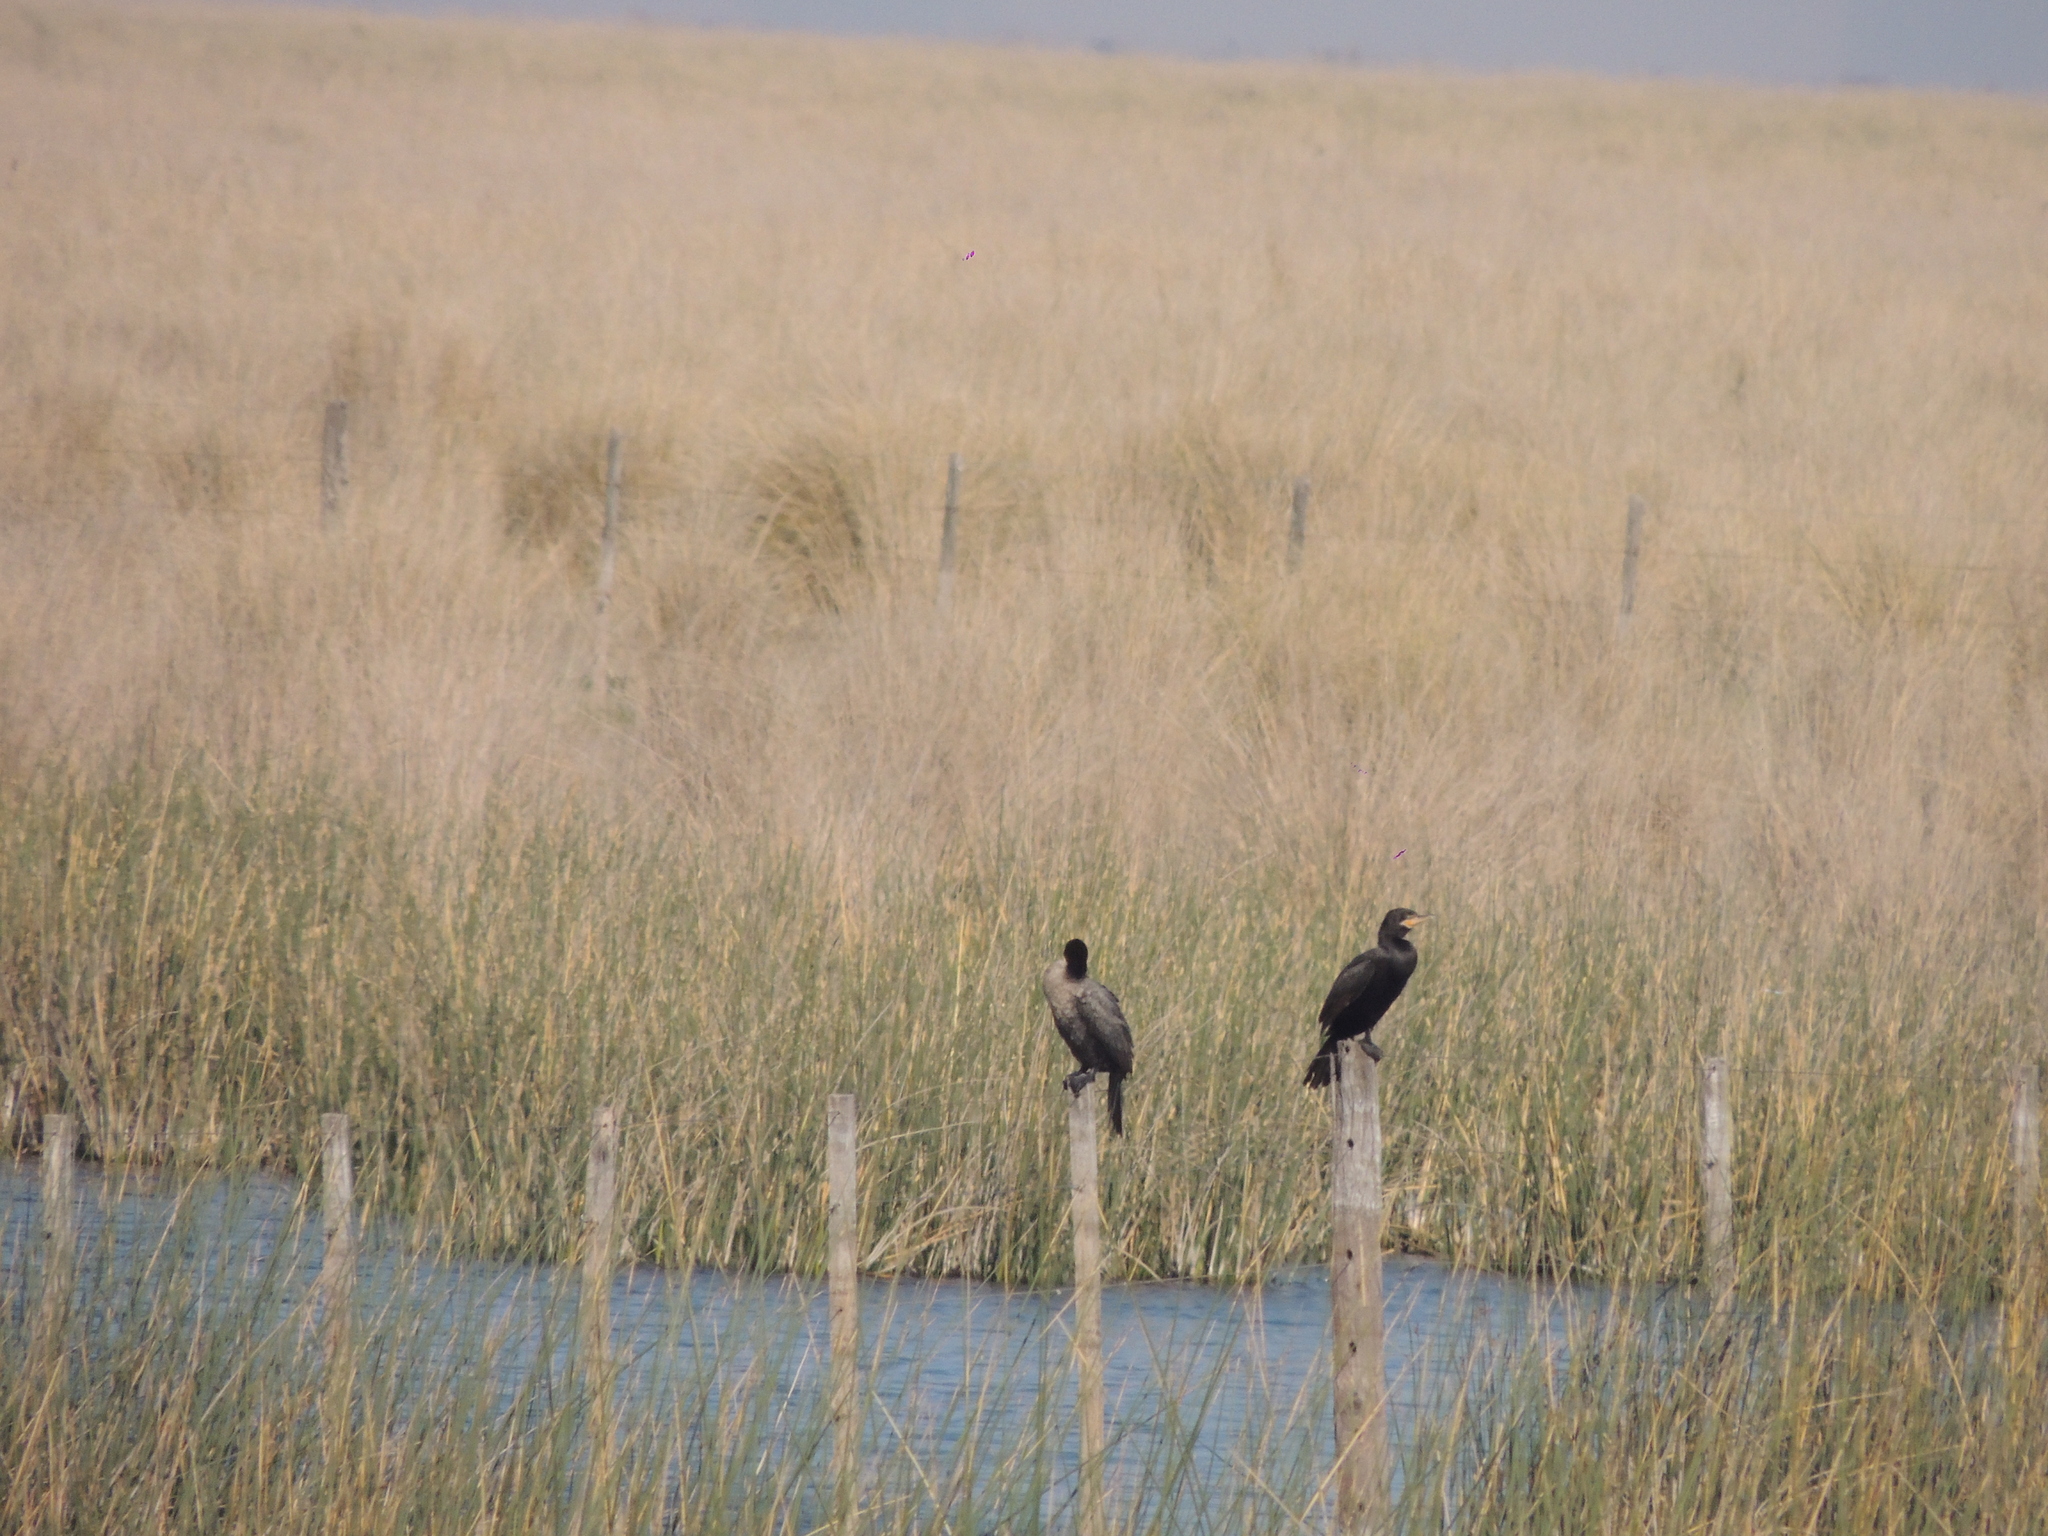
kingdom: Animalia
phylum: Chordata
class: Aves
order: Suliformes
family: Phalacrocoracidae
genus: Phalacrocorax
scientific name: Phalacrocorax brasilianus
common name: Neotropic cormorant
